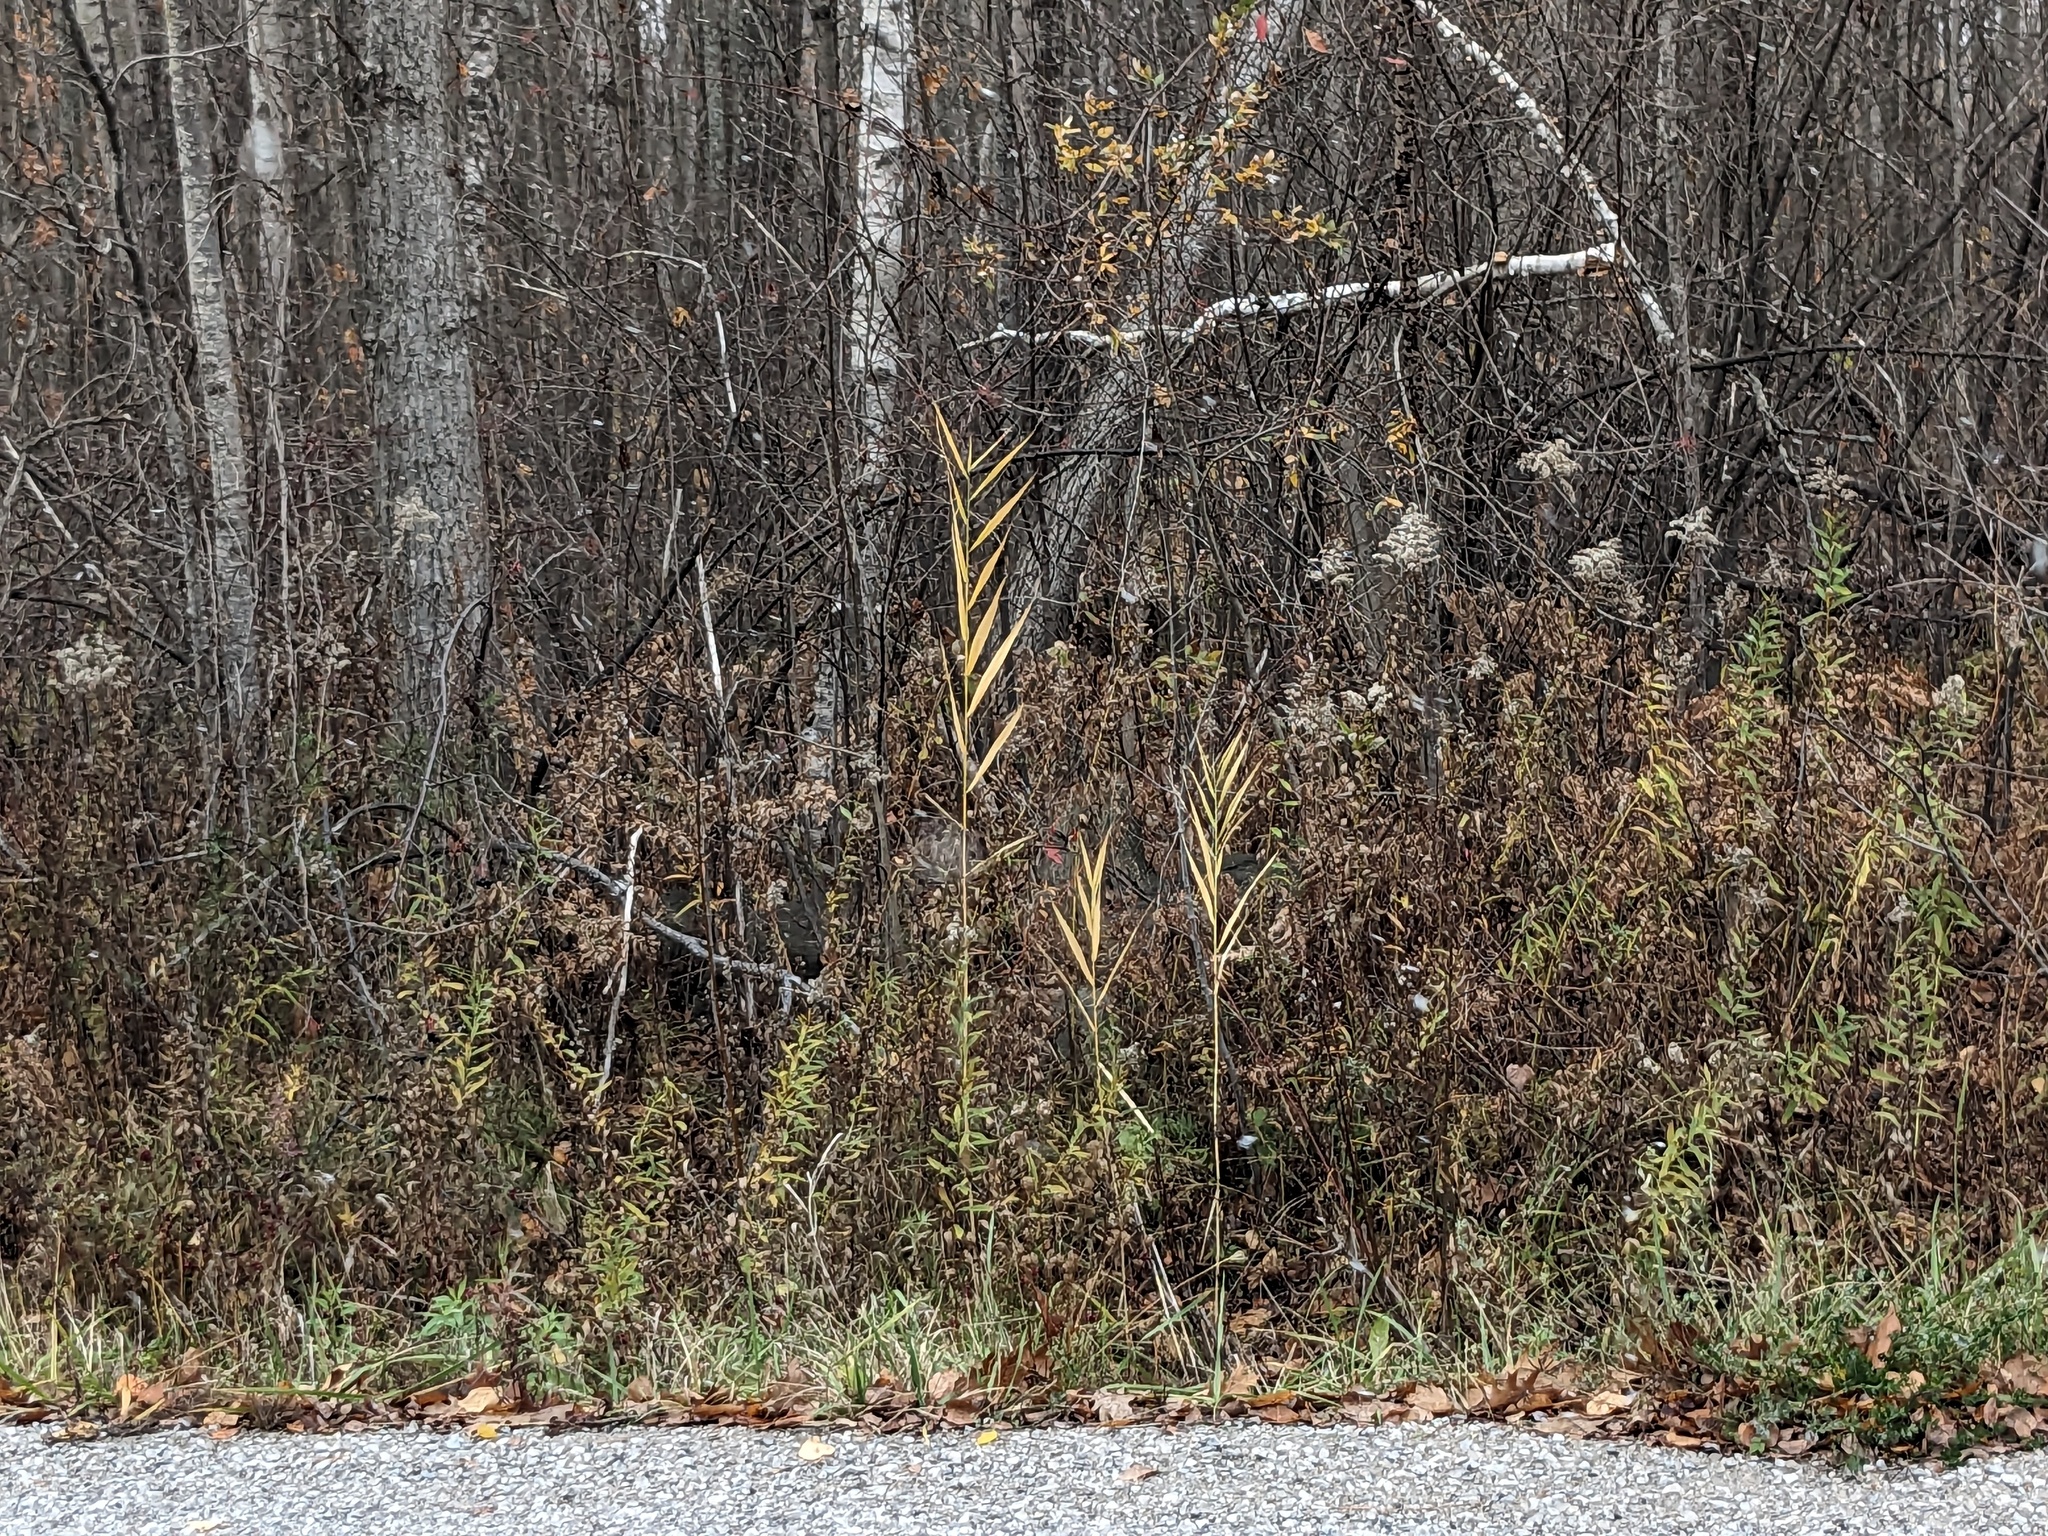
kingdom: Plantae
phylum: Tracheophyta
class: Liliopsida
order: Poales
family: Poaceae
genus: Phragmites
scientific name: Phragmites australis
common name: Common reed
